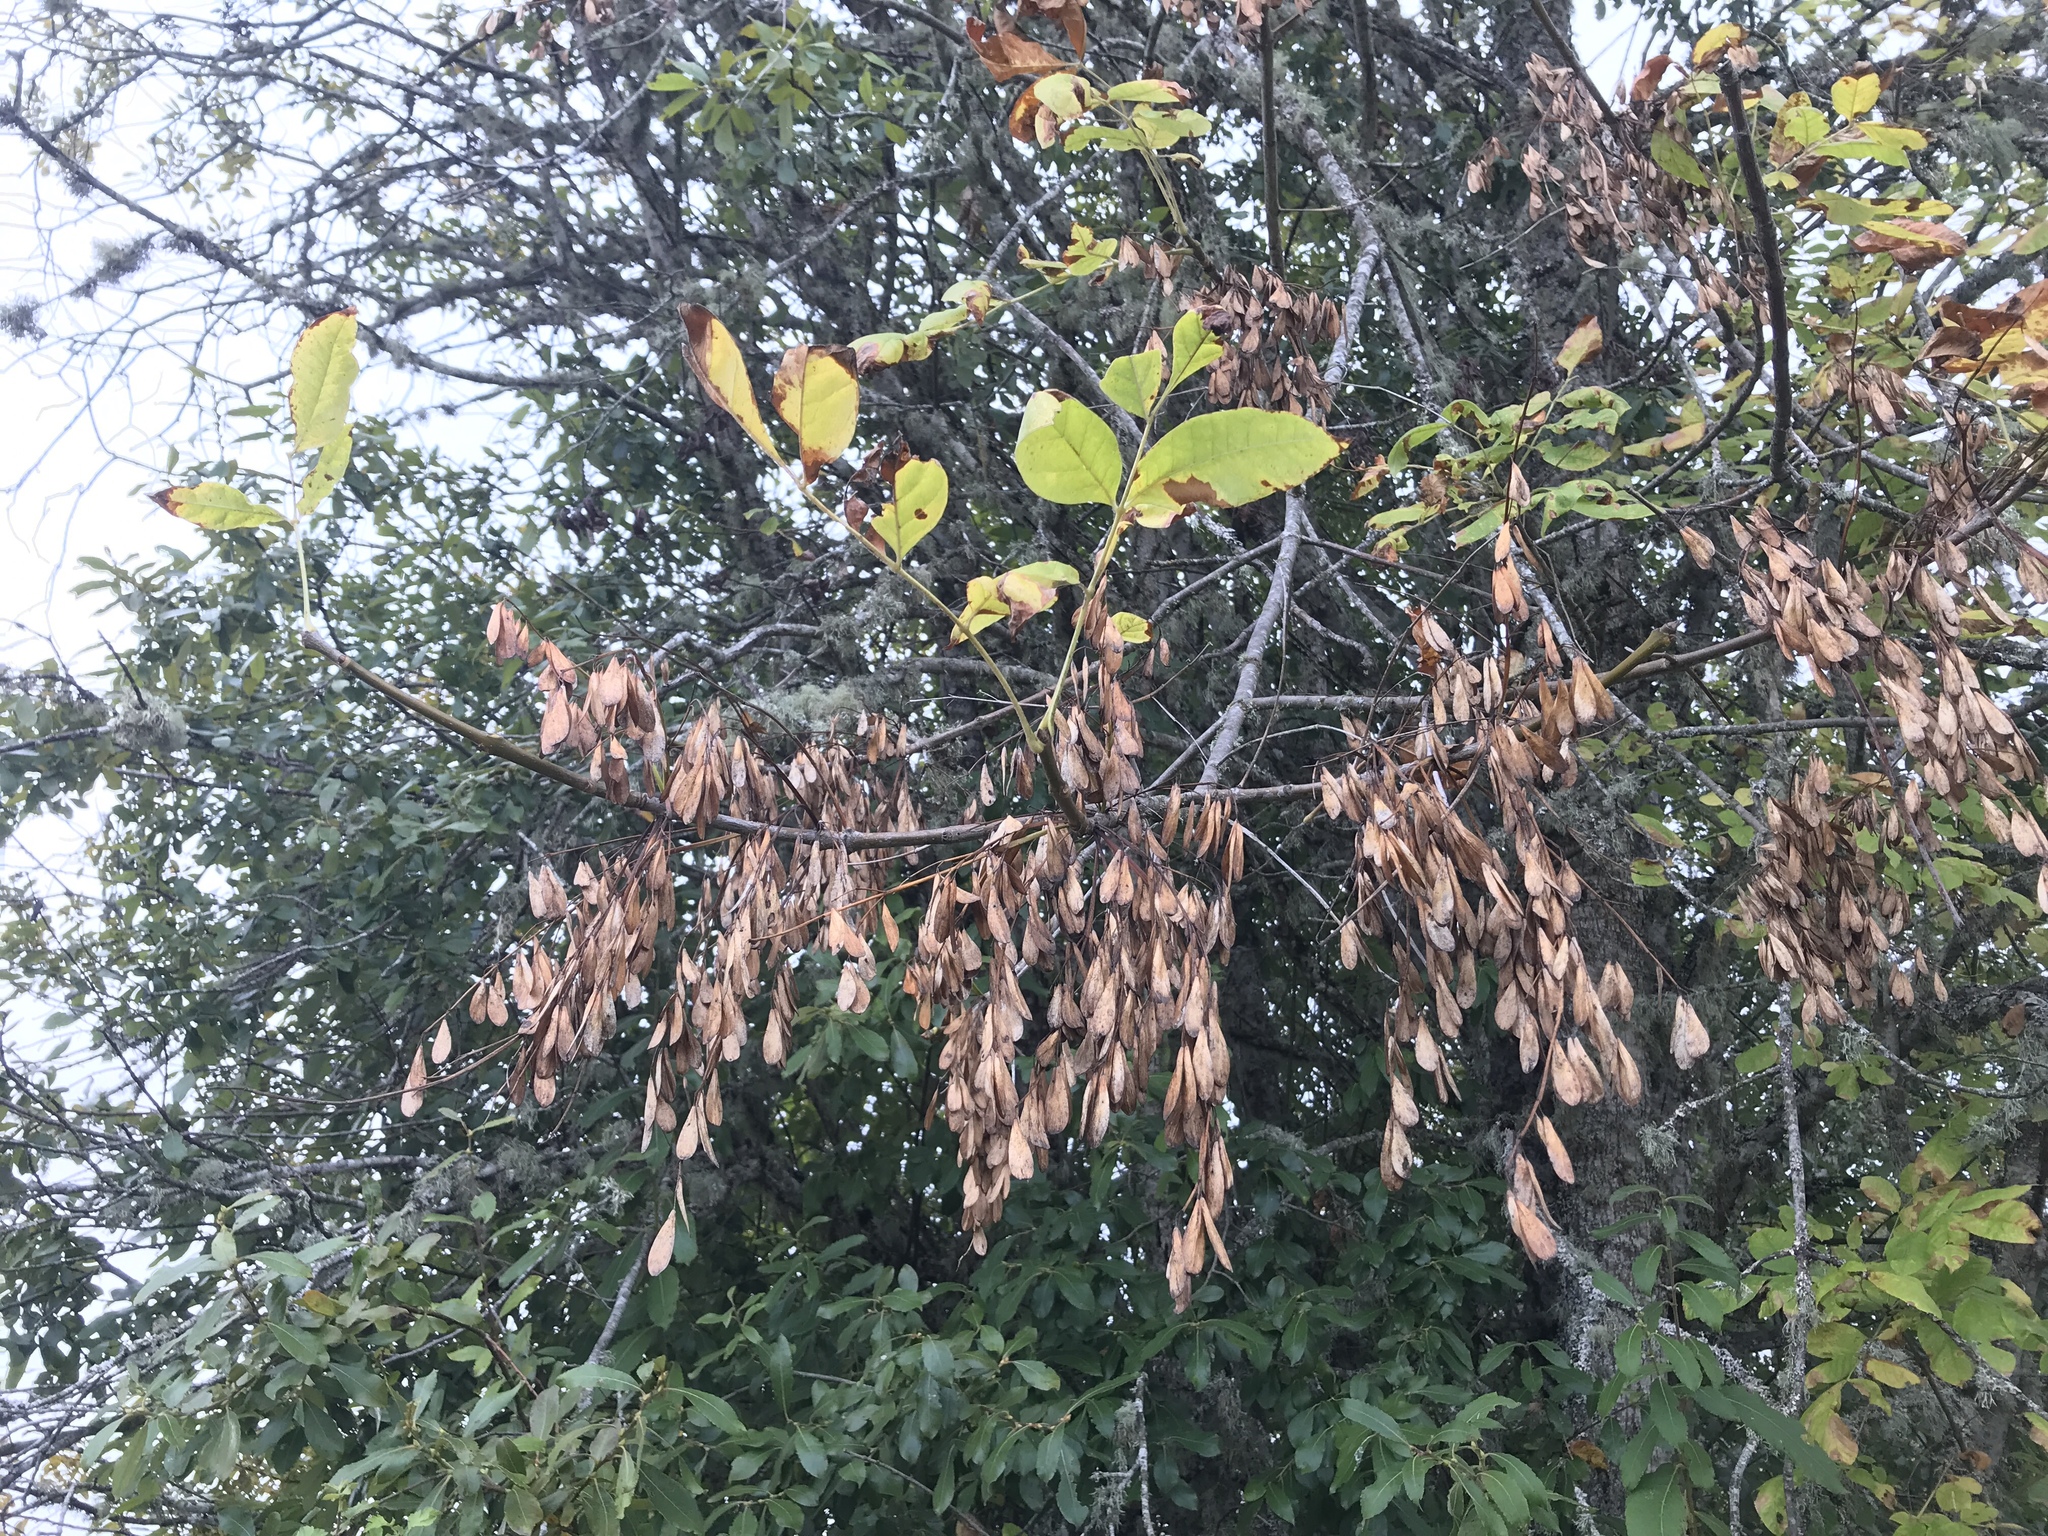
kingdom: Plantae
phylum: Tracheophyta
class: Magnoliopsida
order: Lamiales
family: Oleaceae
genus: Fraxinus
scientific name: Fraxinus latifolia
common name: Oregon ash
